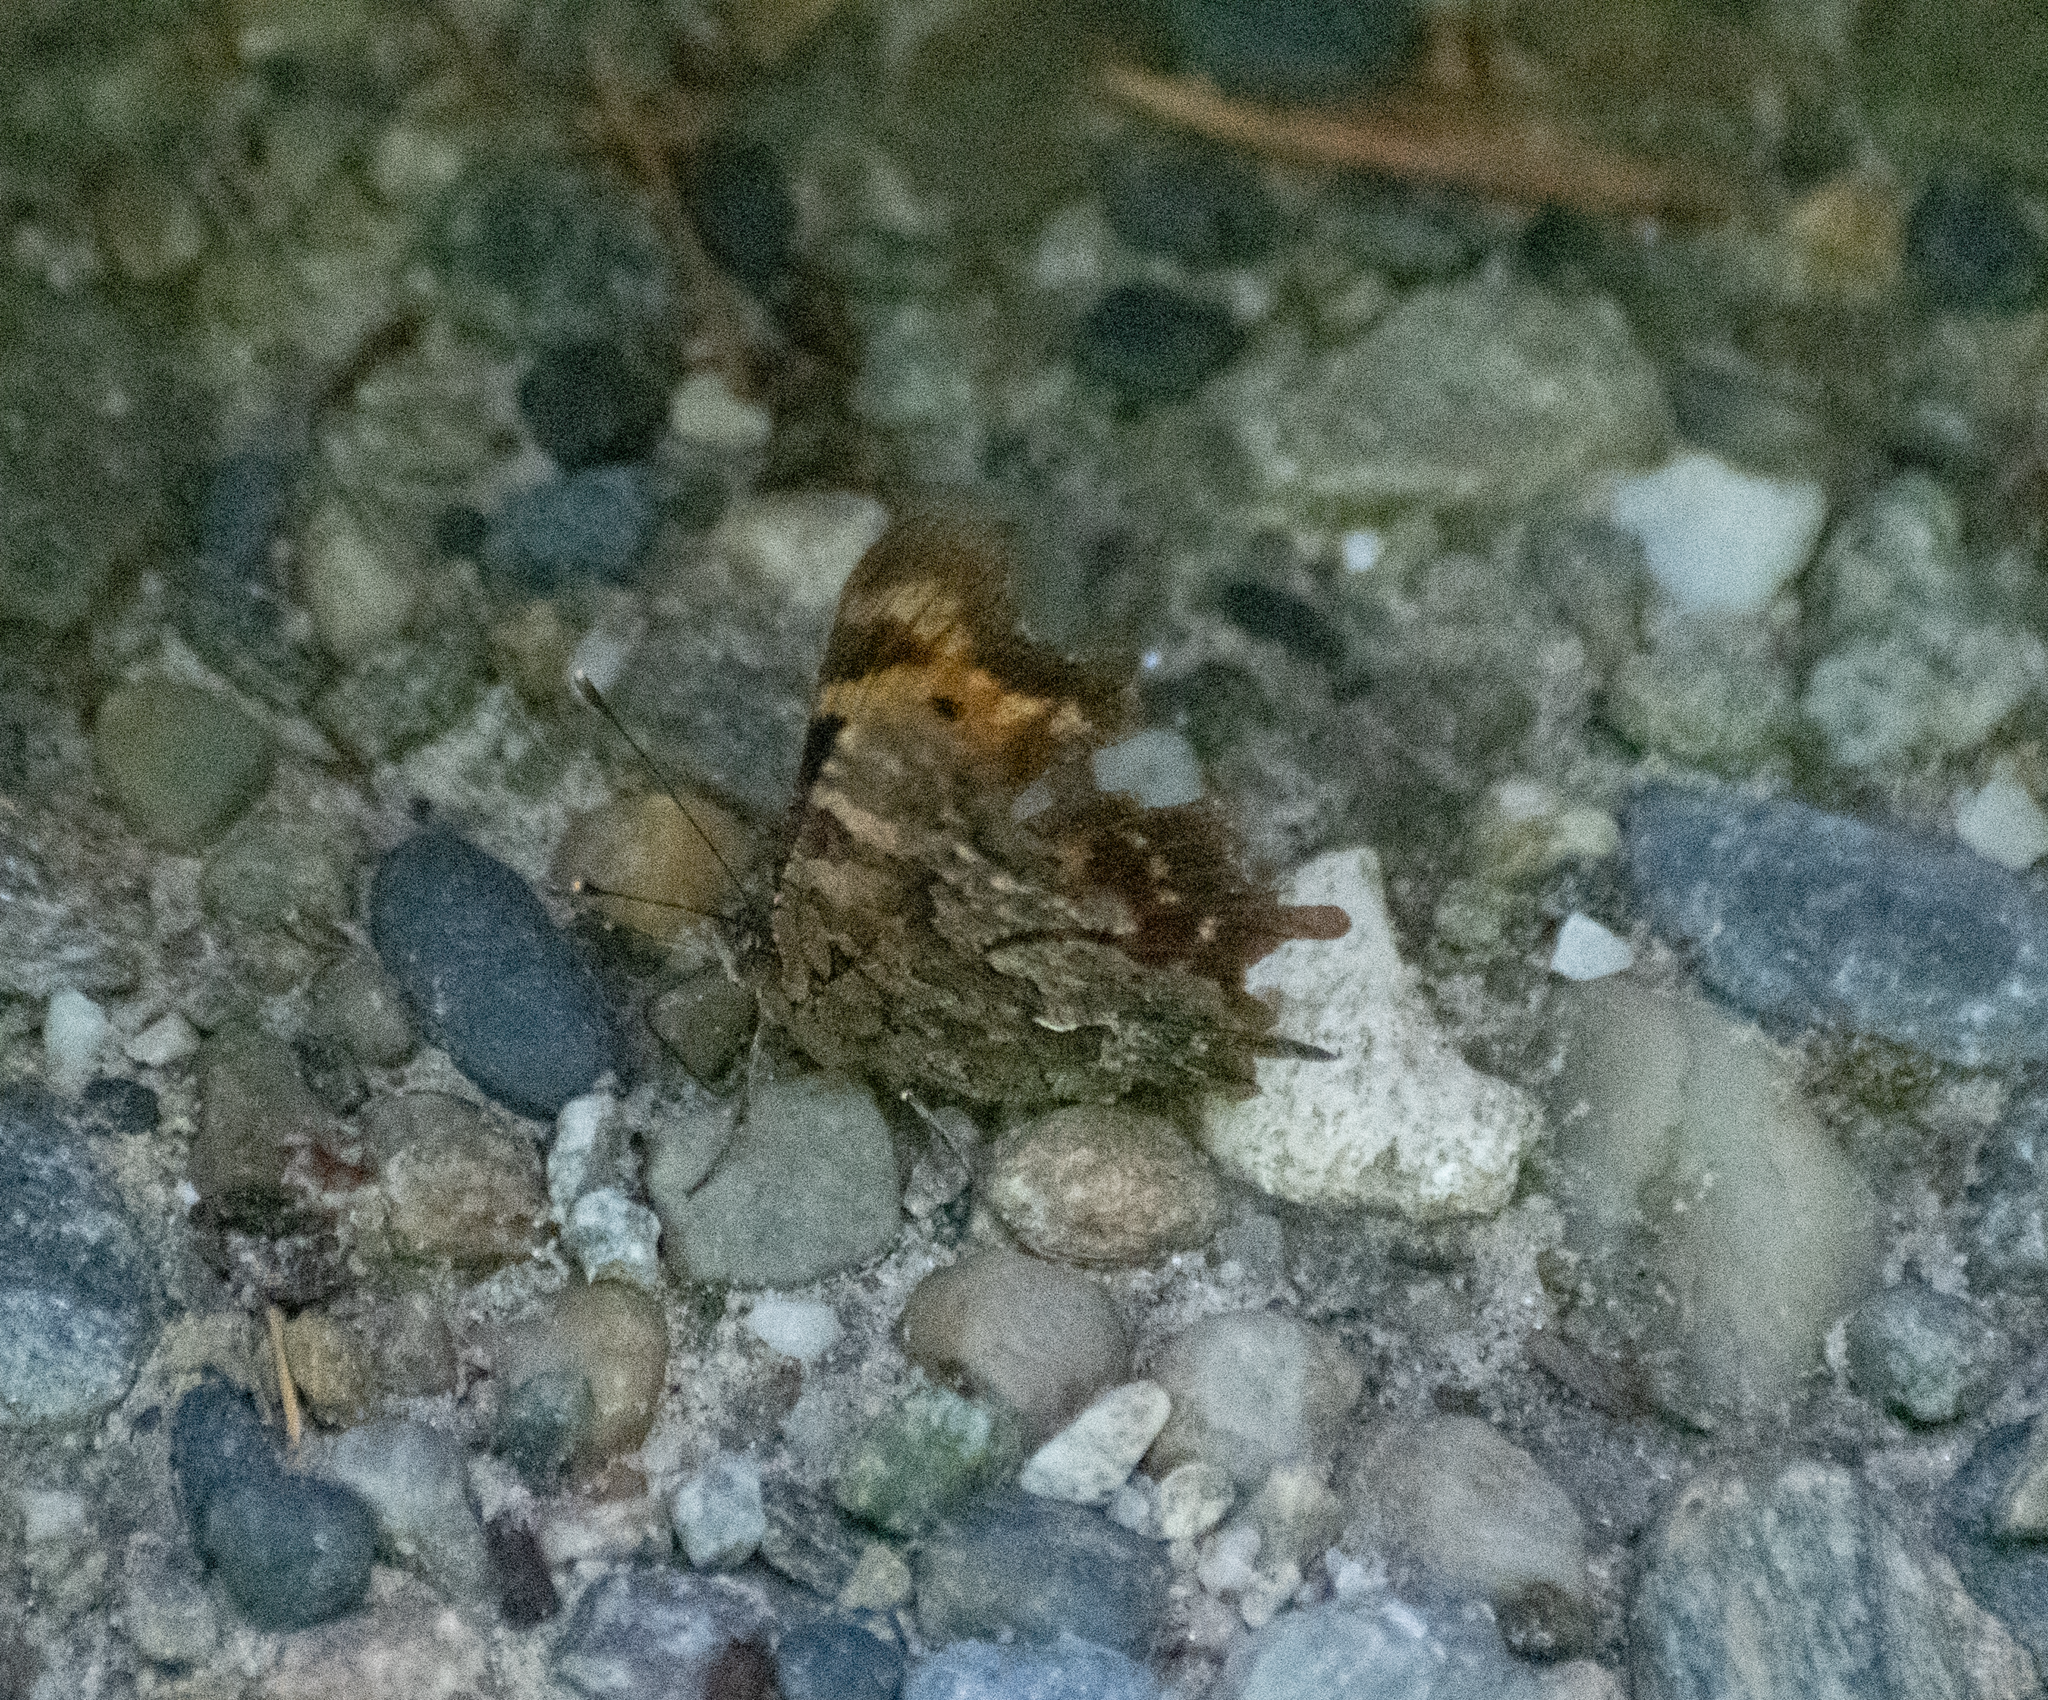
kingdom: Animalia
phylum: Arthropoda
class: Insecta
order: Lepidoptera
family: Nymphalidae
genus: Polygonia
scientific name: Polygonia faunus
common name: Green comma
